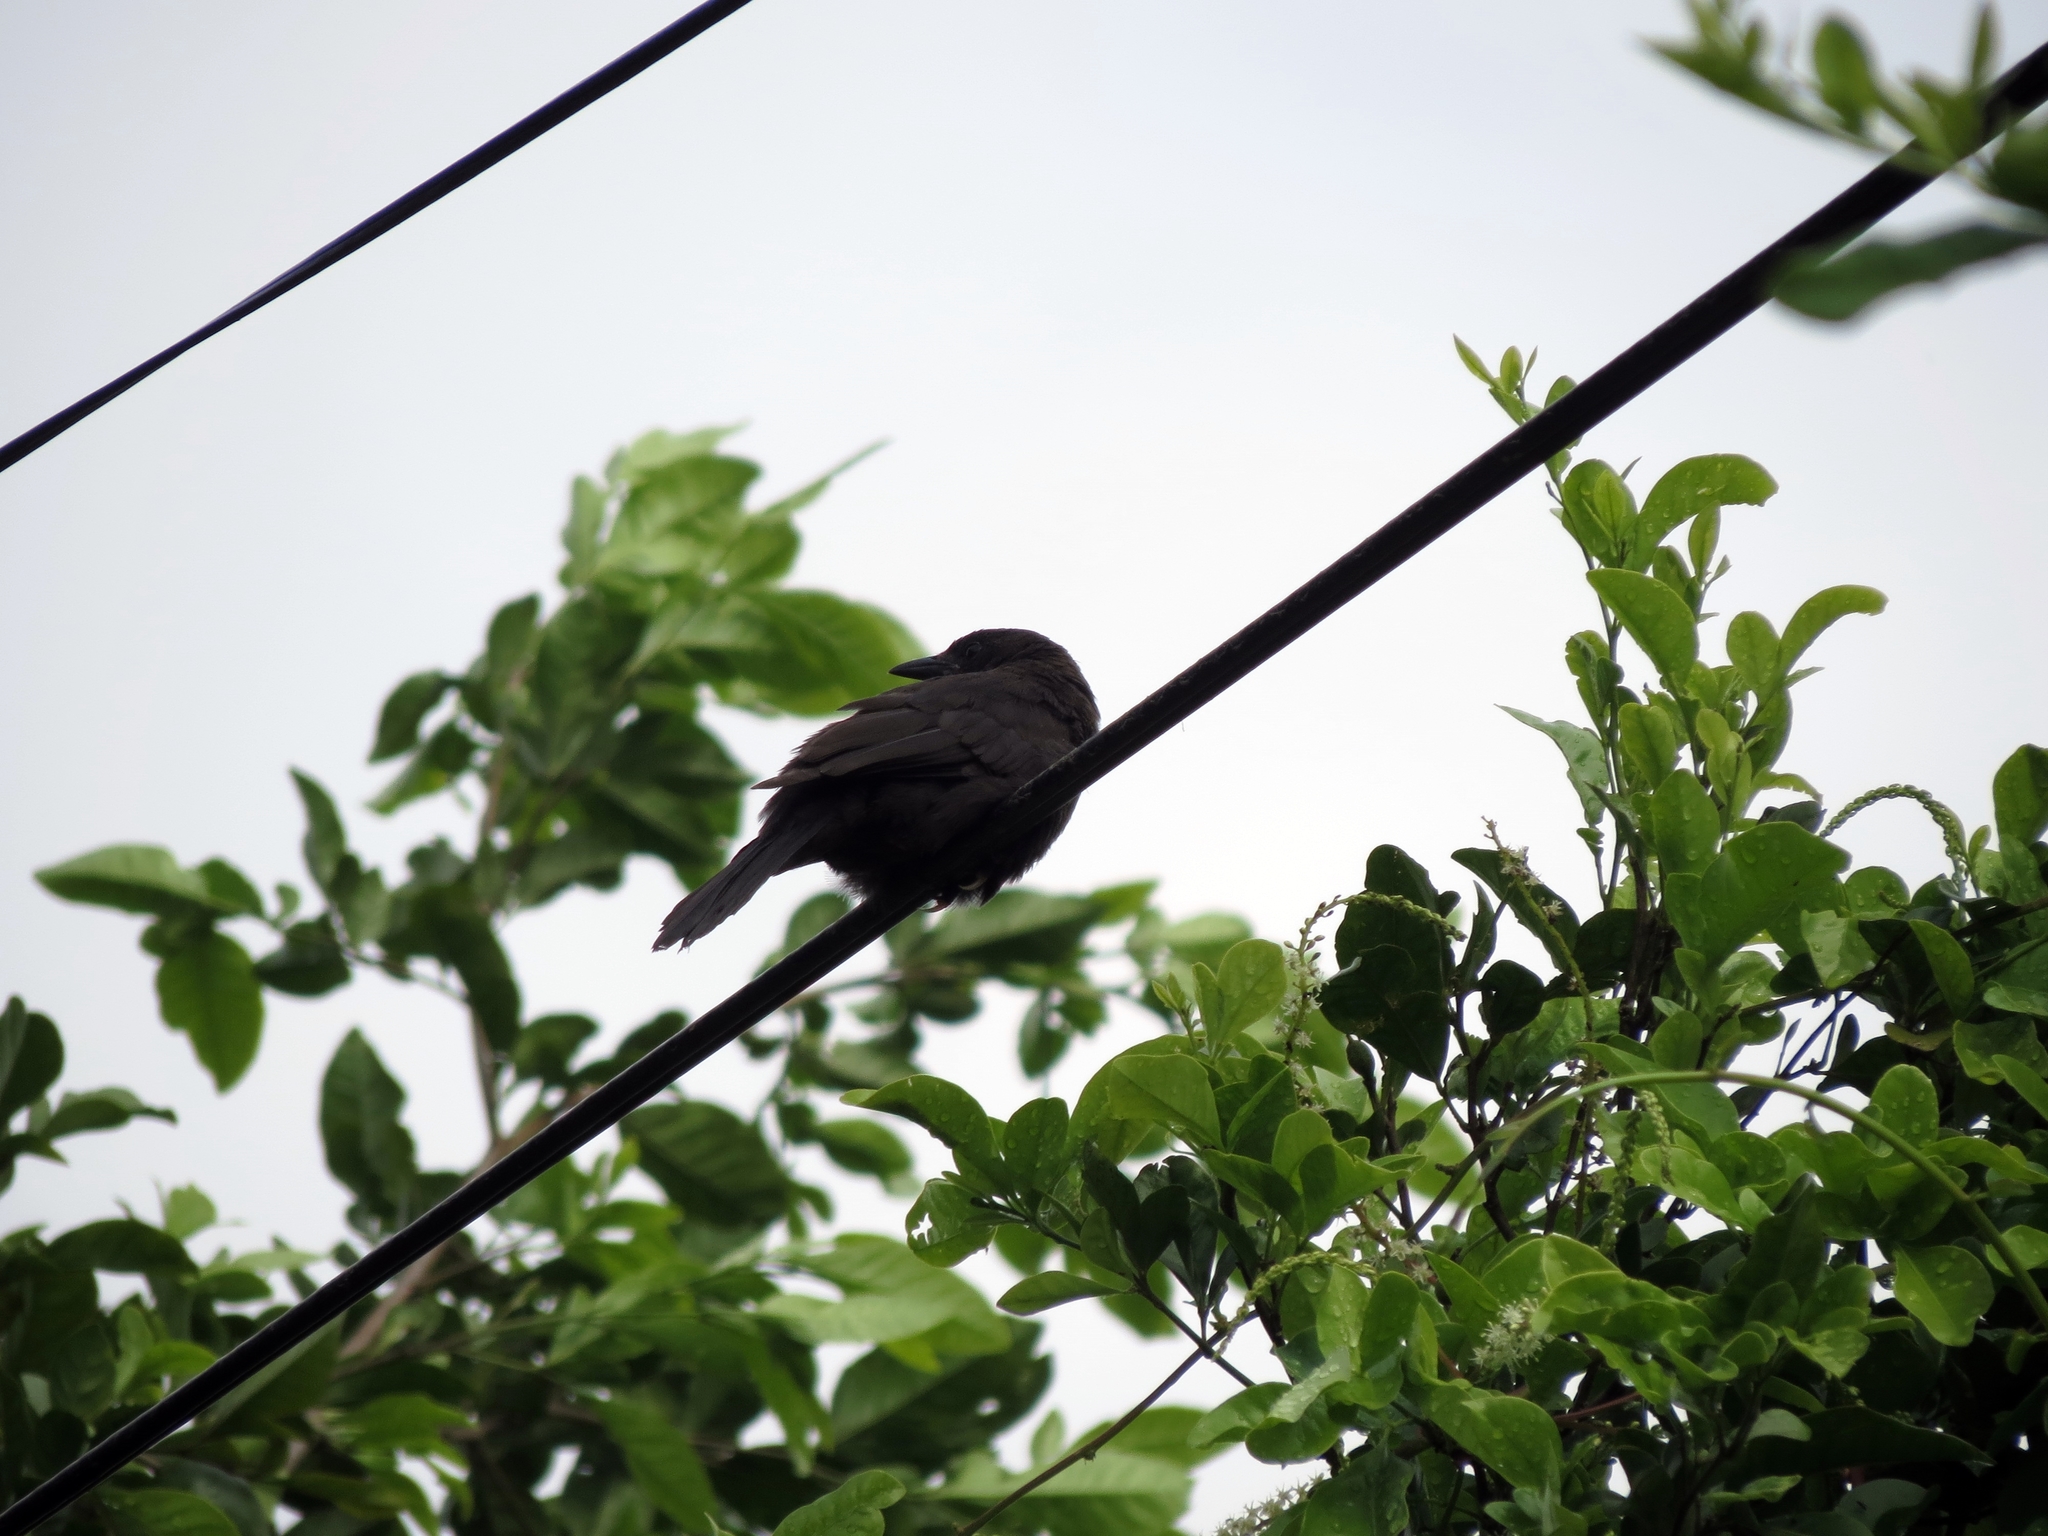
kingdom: Animalia
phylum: Chordata
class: Aves
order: Passeriformes
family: Icteridae
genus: Molothrus
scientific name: Molothrus bonariensis
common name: Shiny cowbird
